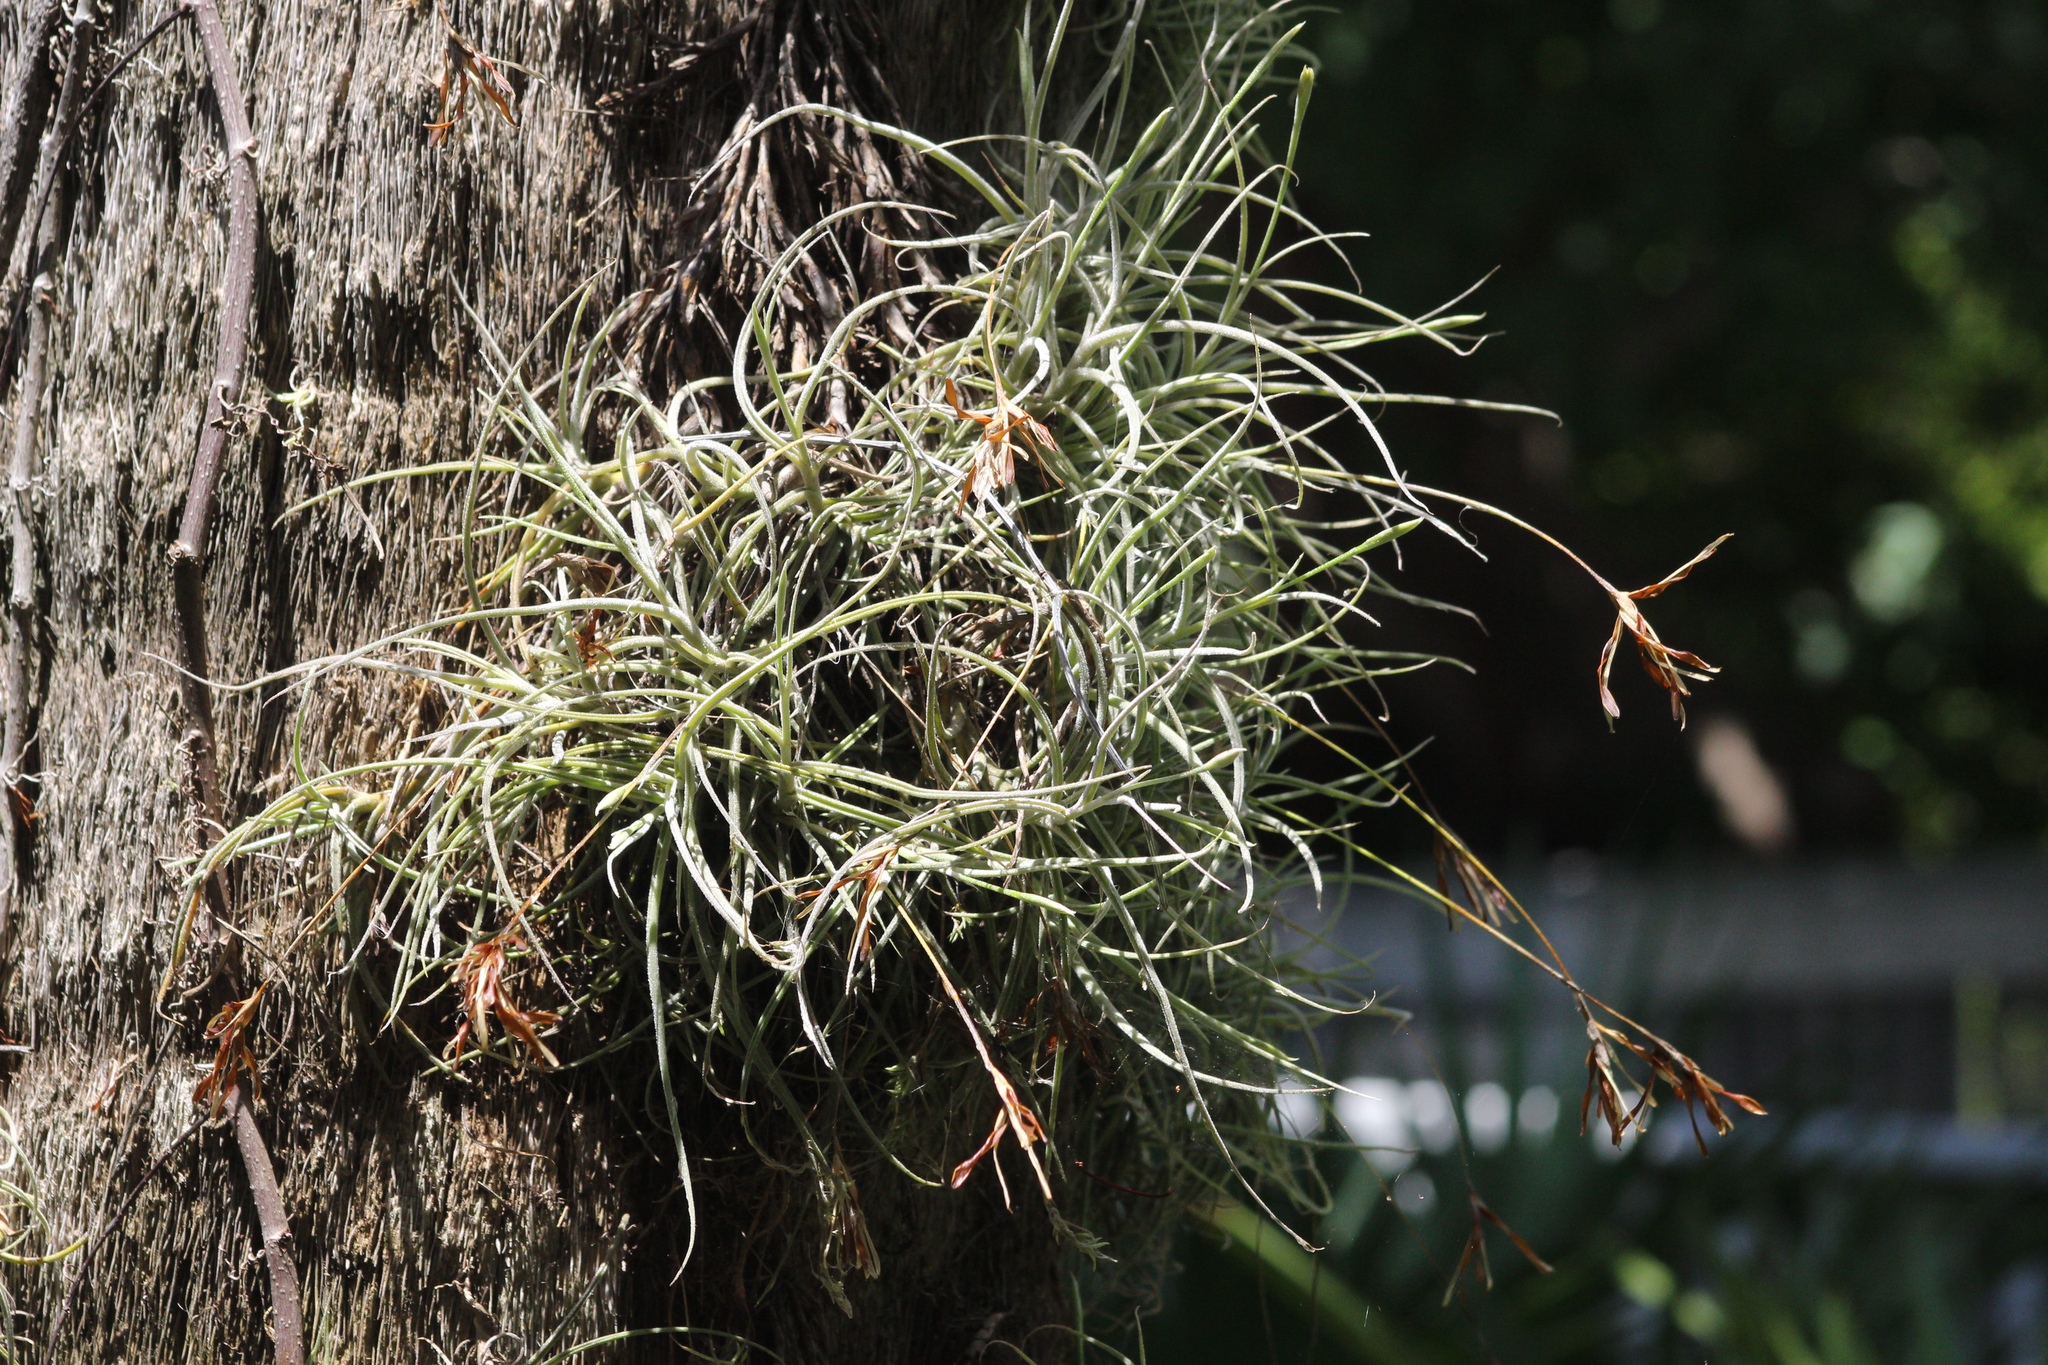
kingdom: Plantae
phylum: Tracheophyta
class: Liliopsida
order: Poales
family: Bromeliaceae
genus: Tillandsia
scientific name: Tillandsia recurvata
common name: Small ballmoss
